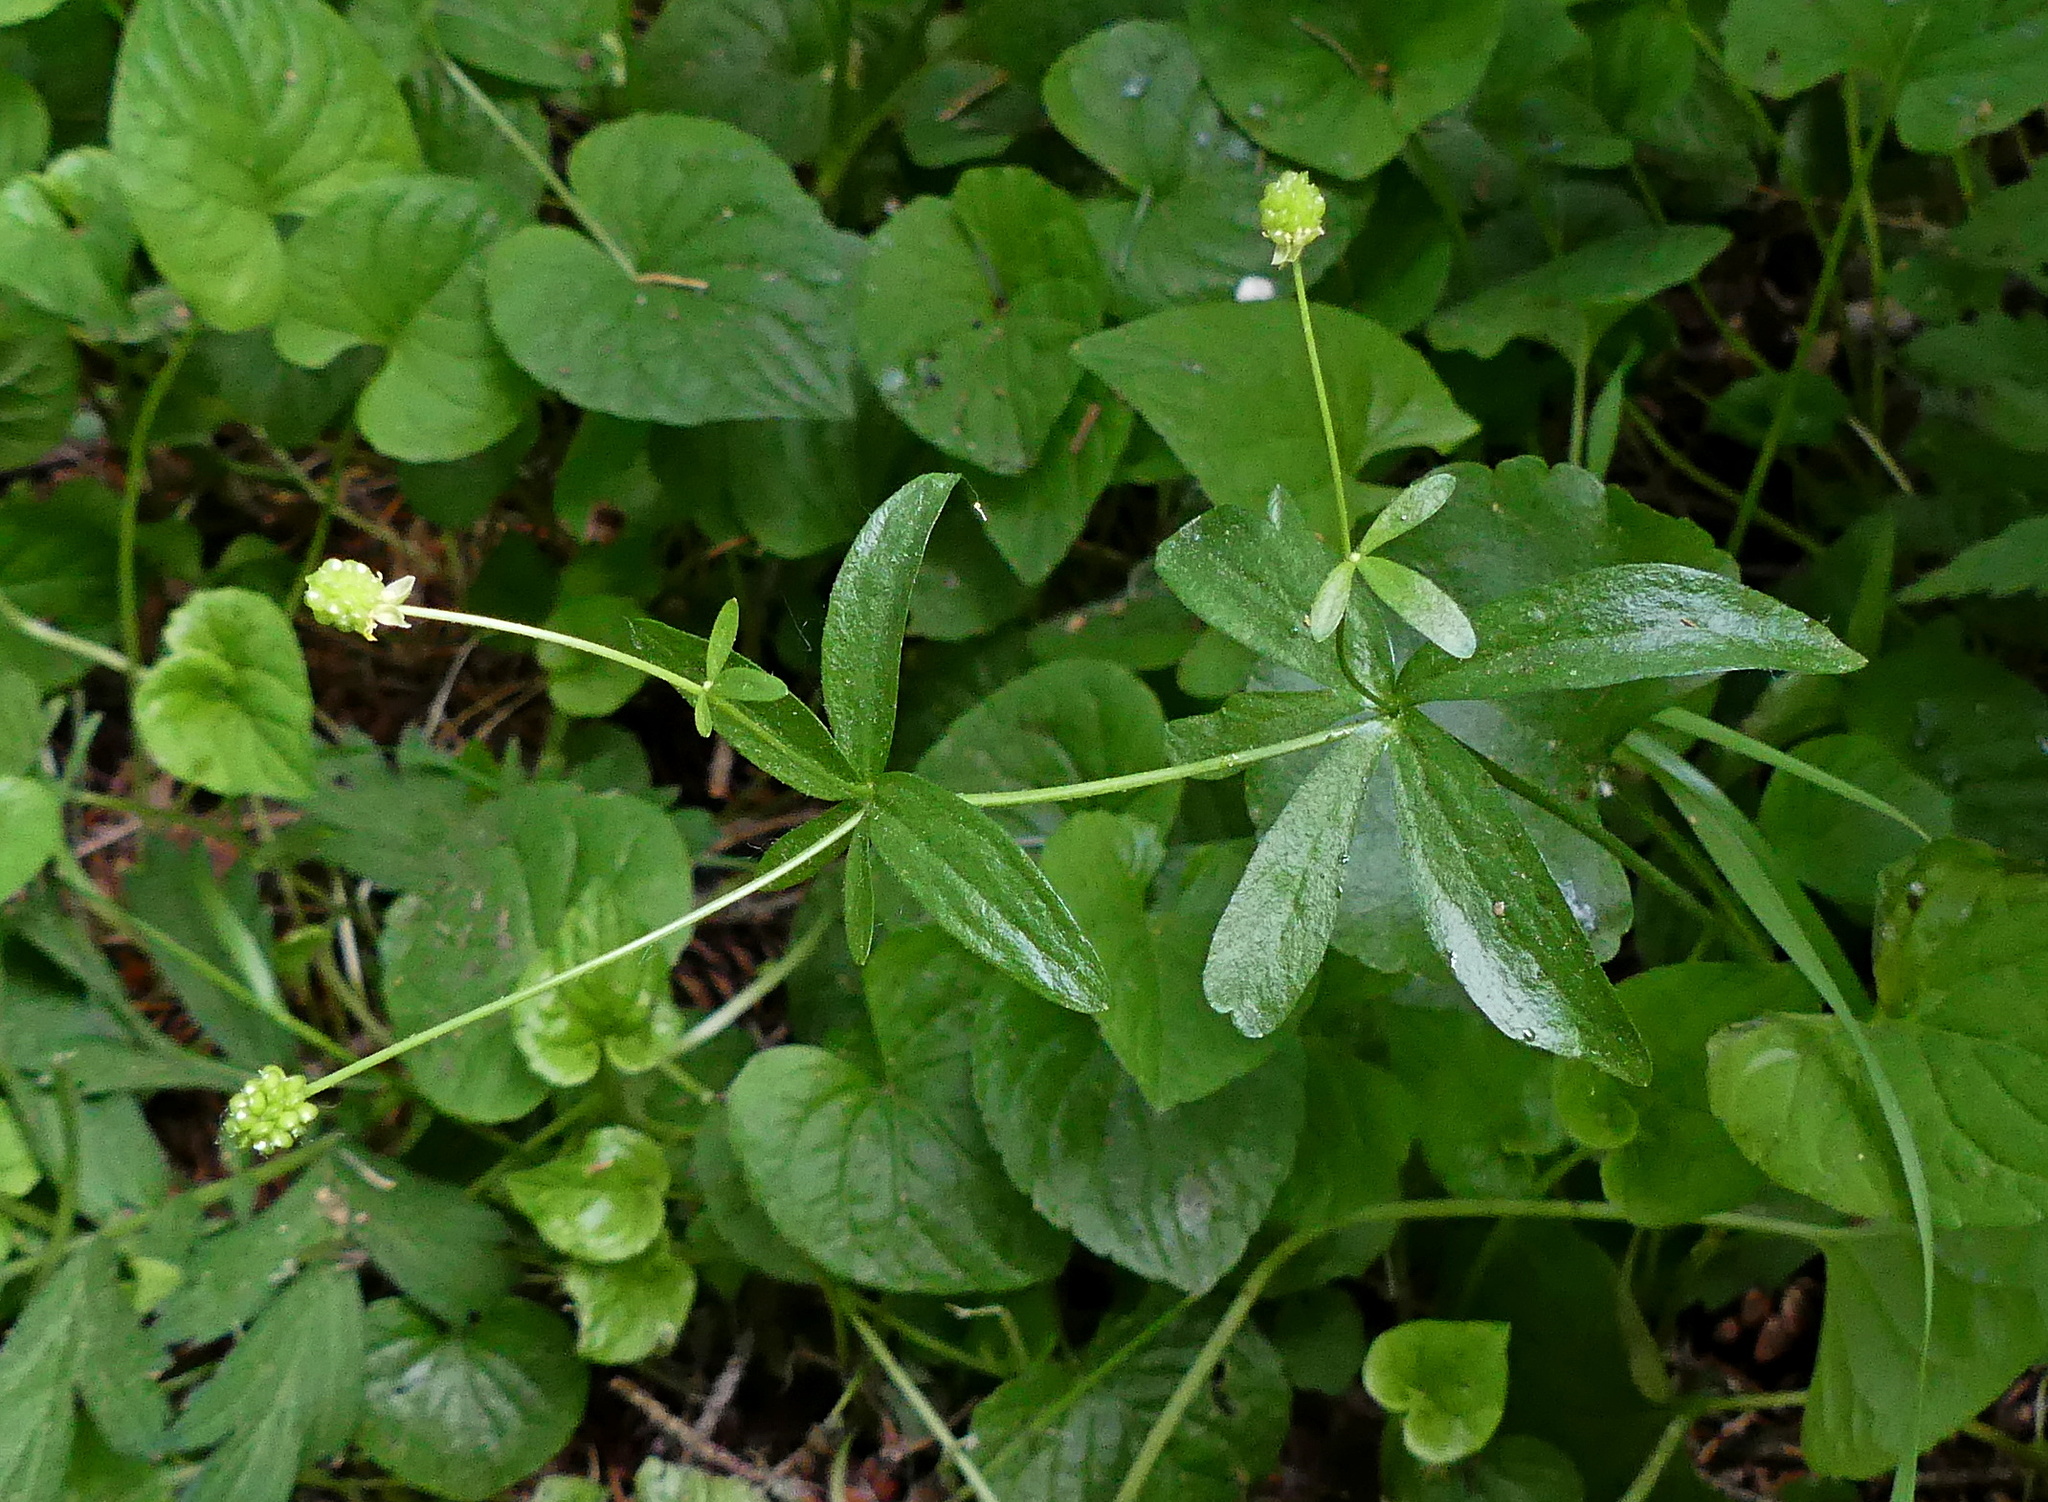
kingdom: Plantae
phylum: Tracheophyta
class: Magnoliopsida
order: Ranunculales
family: Ranunculaceae
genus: Ranunculus
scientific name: Ranunculus abortivus
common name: Early wood buttercup
